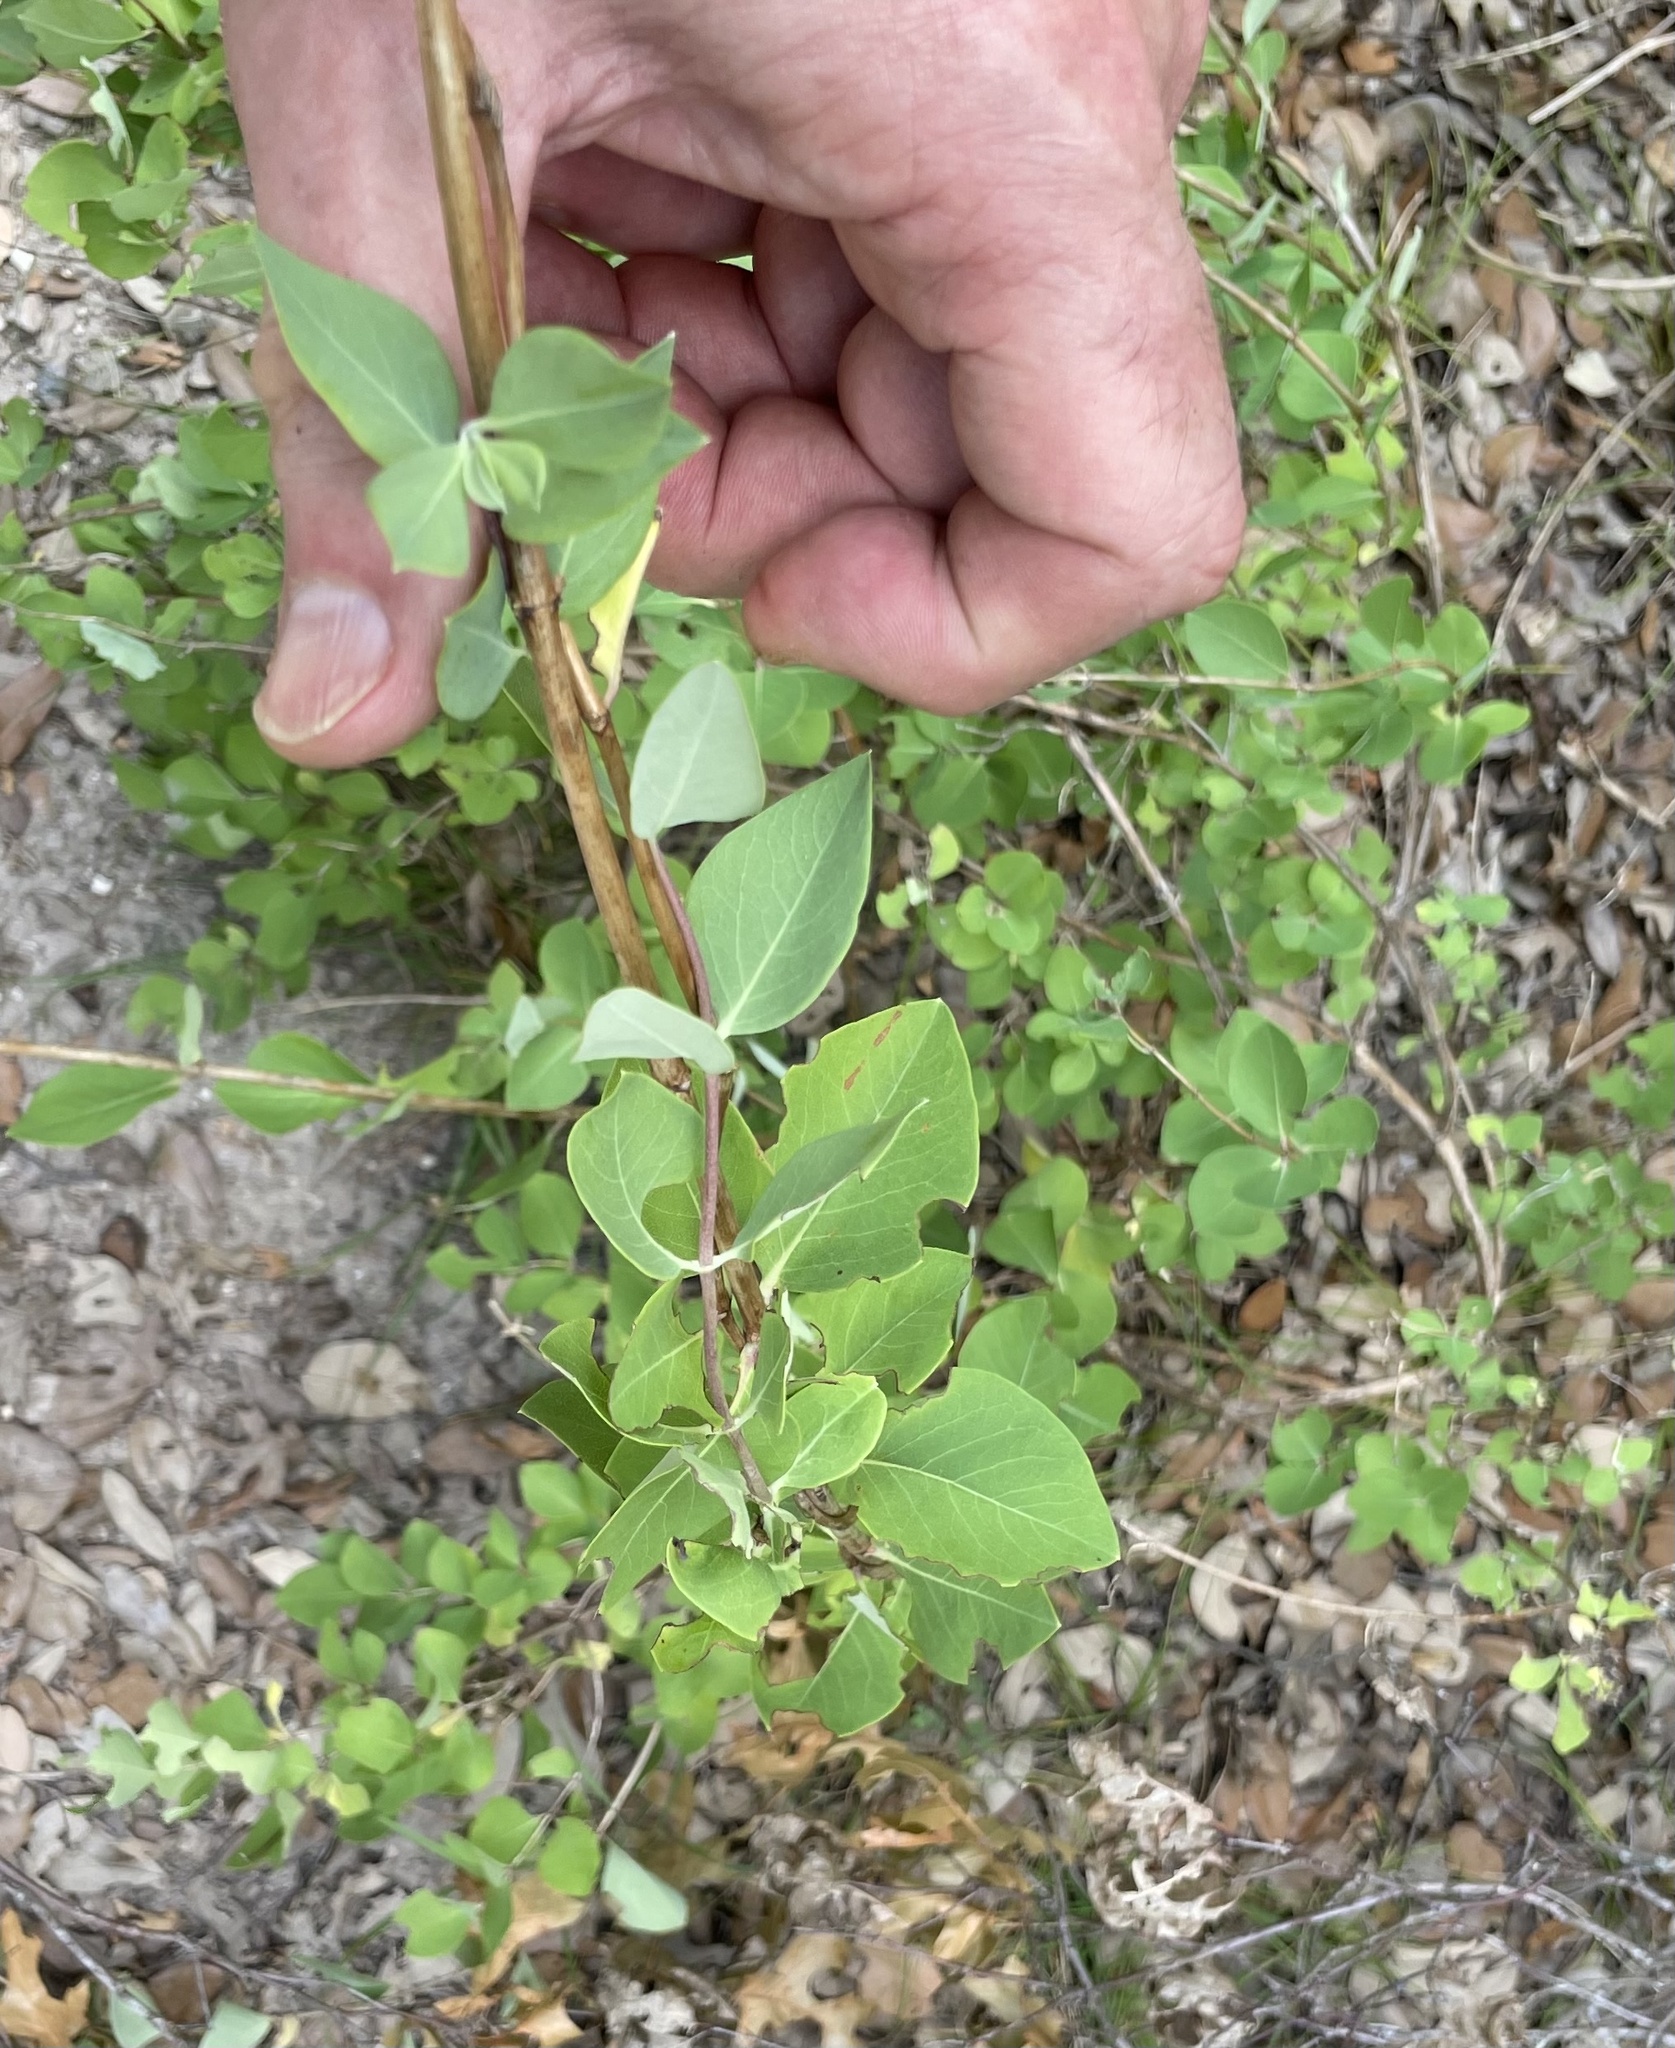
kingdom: Plantae
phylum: Tracheophyta
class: Magnoliopsida
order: Dipsacales
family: Caprifoliaceae
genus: Lonicera
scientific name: Lonicera albiflora
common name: White honeysuckle
